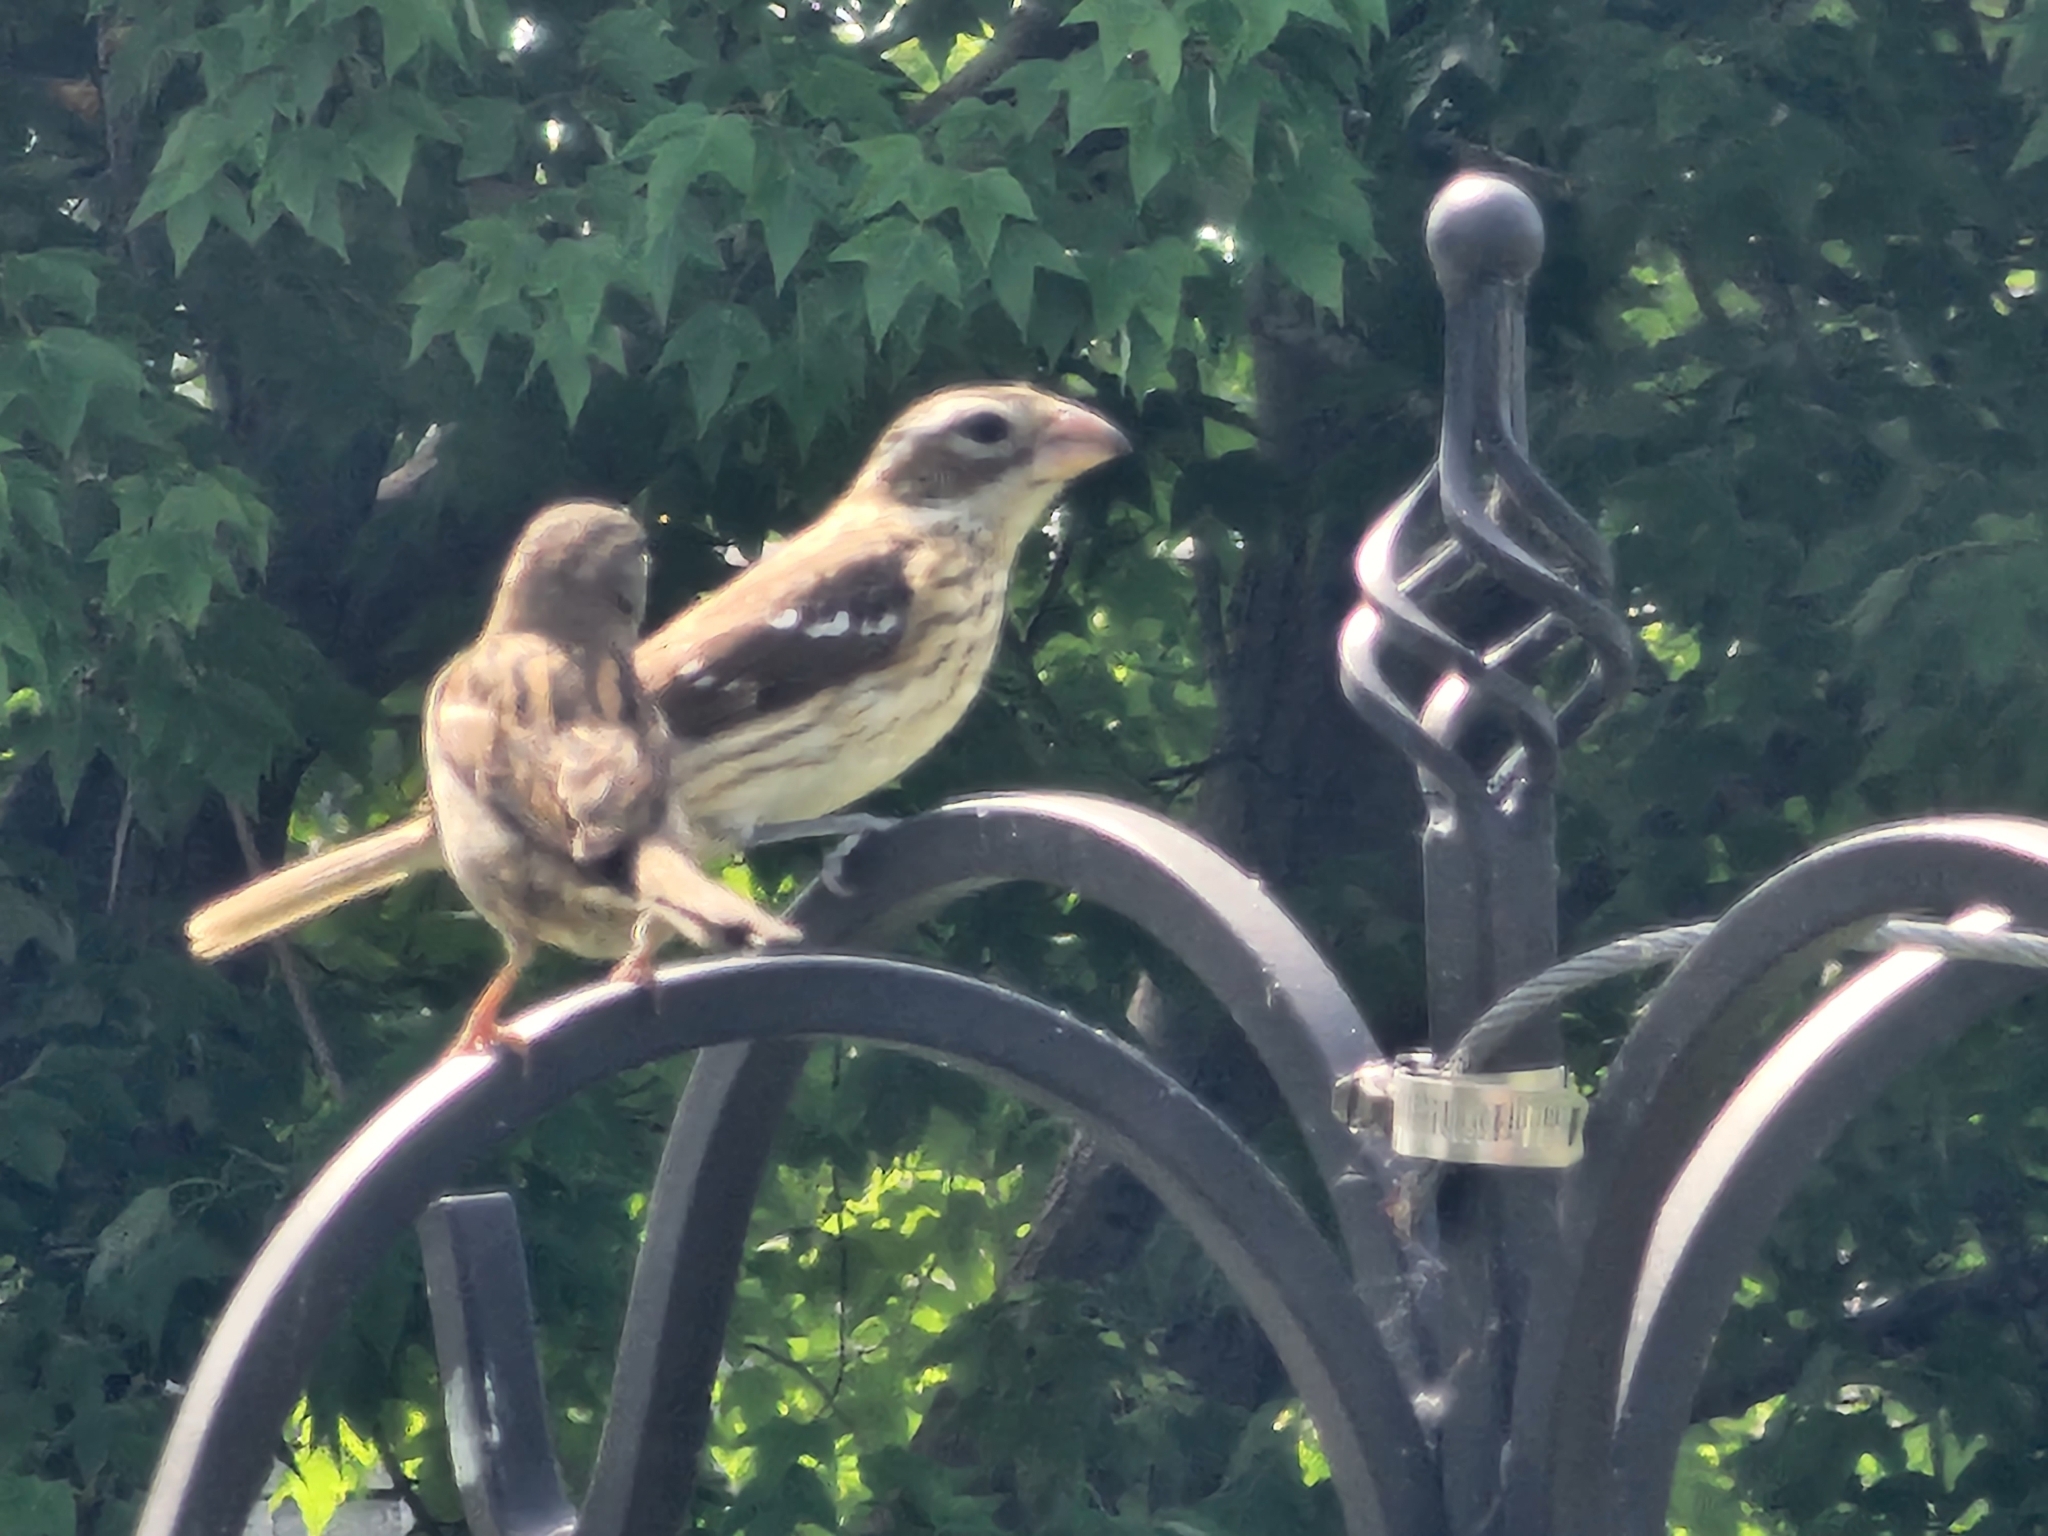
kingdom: Animalia
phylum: Chordata
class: Aves
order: Passeriformes
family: Cardinalidae
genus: Pheucticus
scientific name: Pheucticus ludovicianus
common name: Rose-breasted grosbeak
